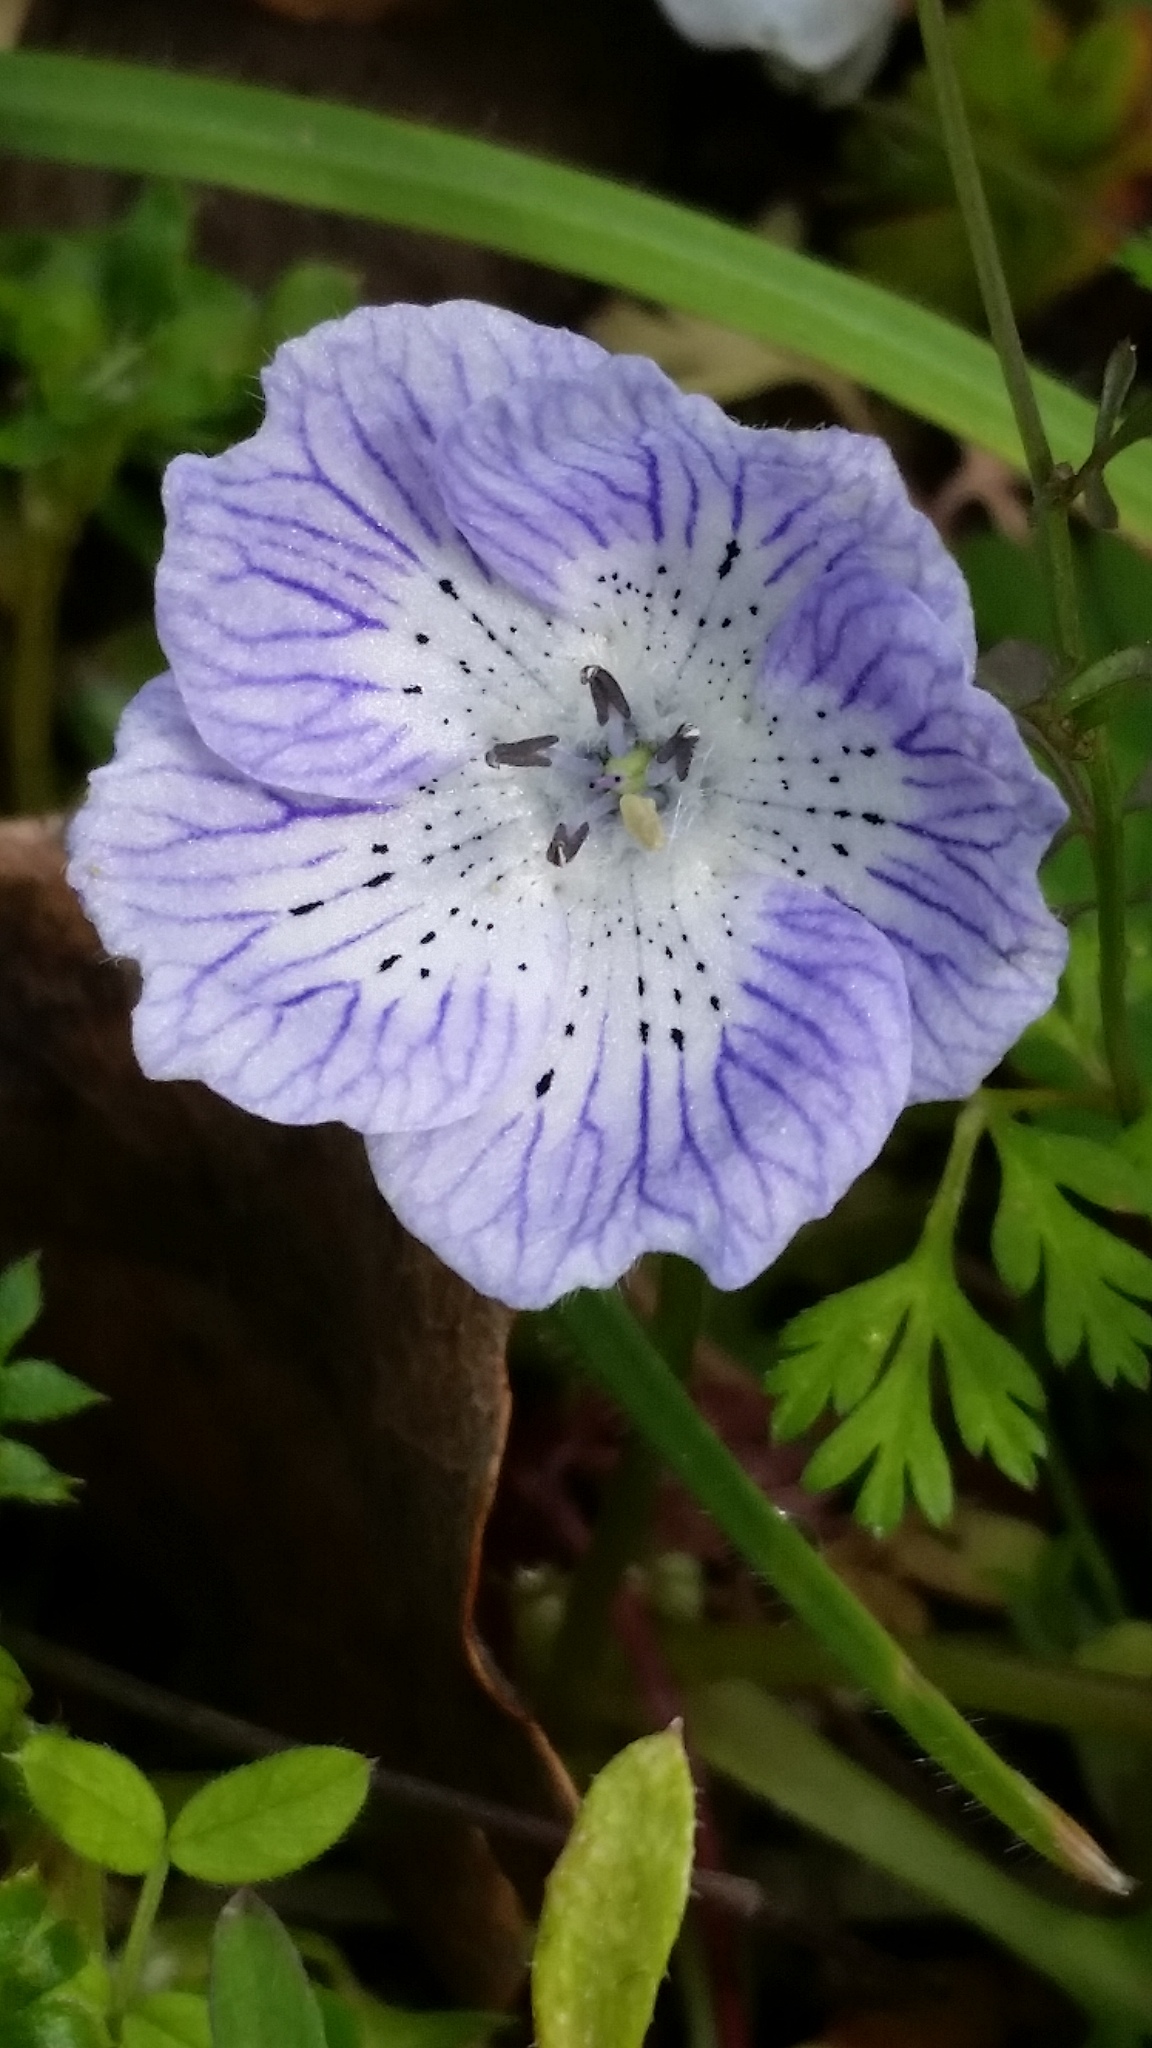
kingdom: Plantae
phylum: Tracheophyta
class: Magnoliopsida
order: Boraginales
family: Hydrophyllaceae
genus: Nemophila
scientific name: Nemophila menziesii
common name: Baby's-blue-eyes
